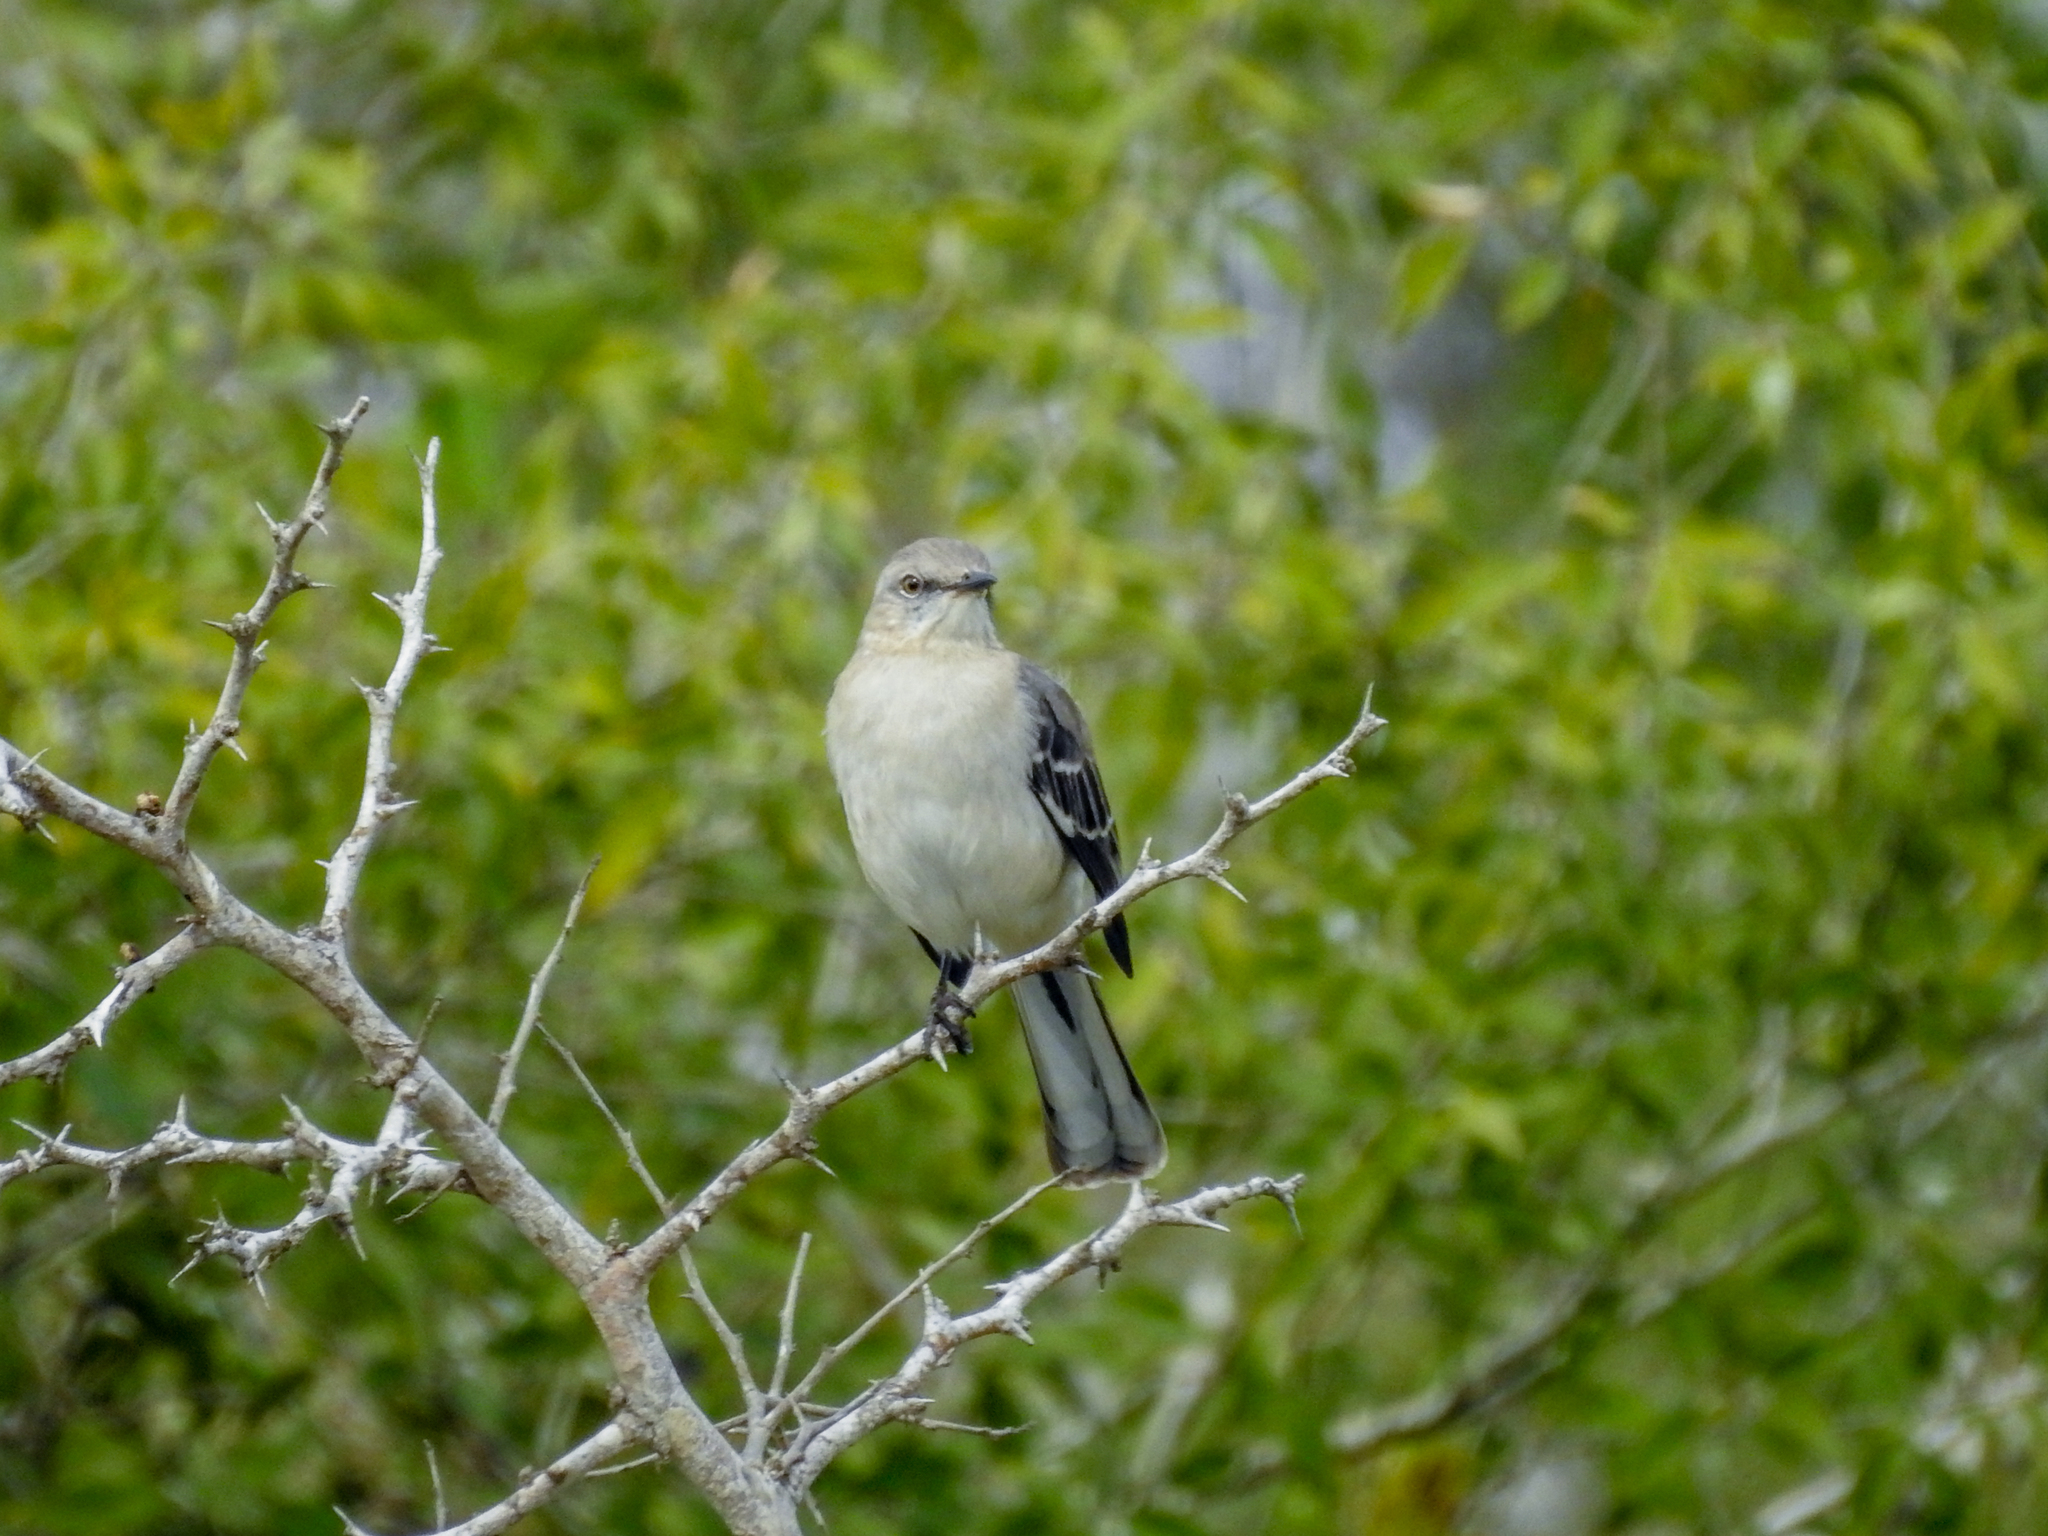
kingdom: Animalia
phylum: Chordata
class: Aves
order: Passeriformes
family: Mimidae
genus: Mimus
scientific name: Mimus polyglottos
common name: Northern mockingbird
